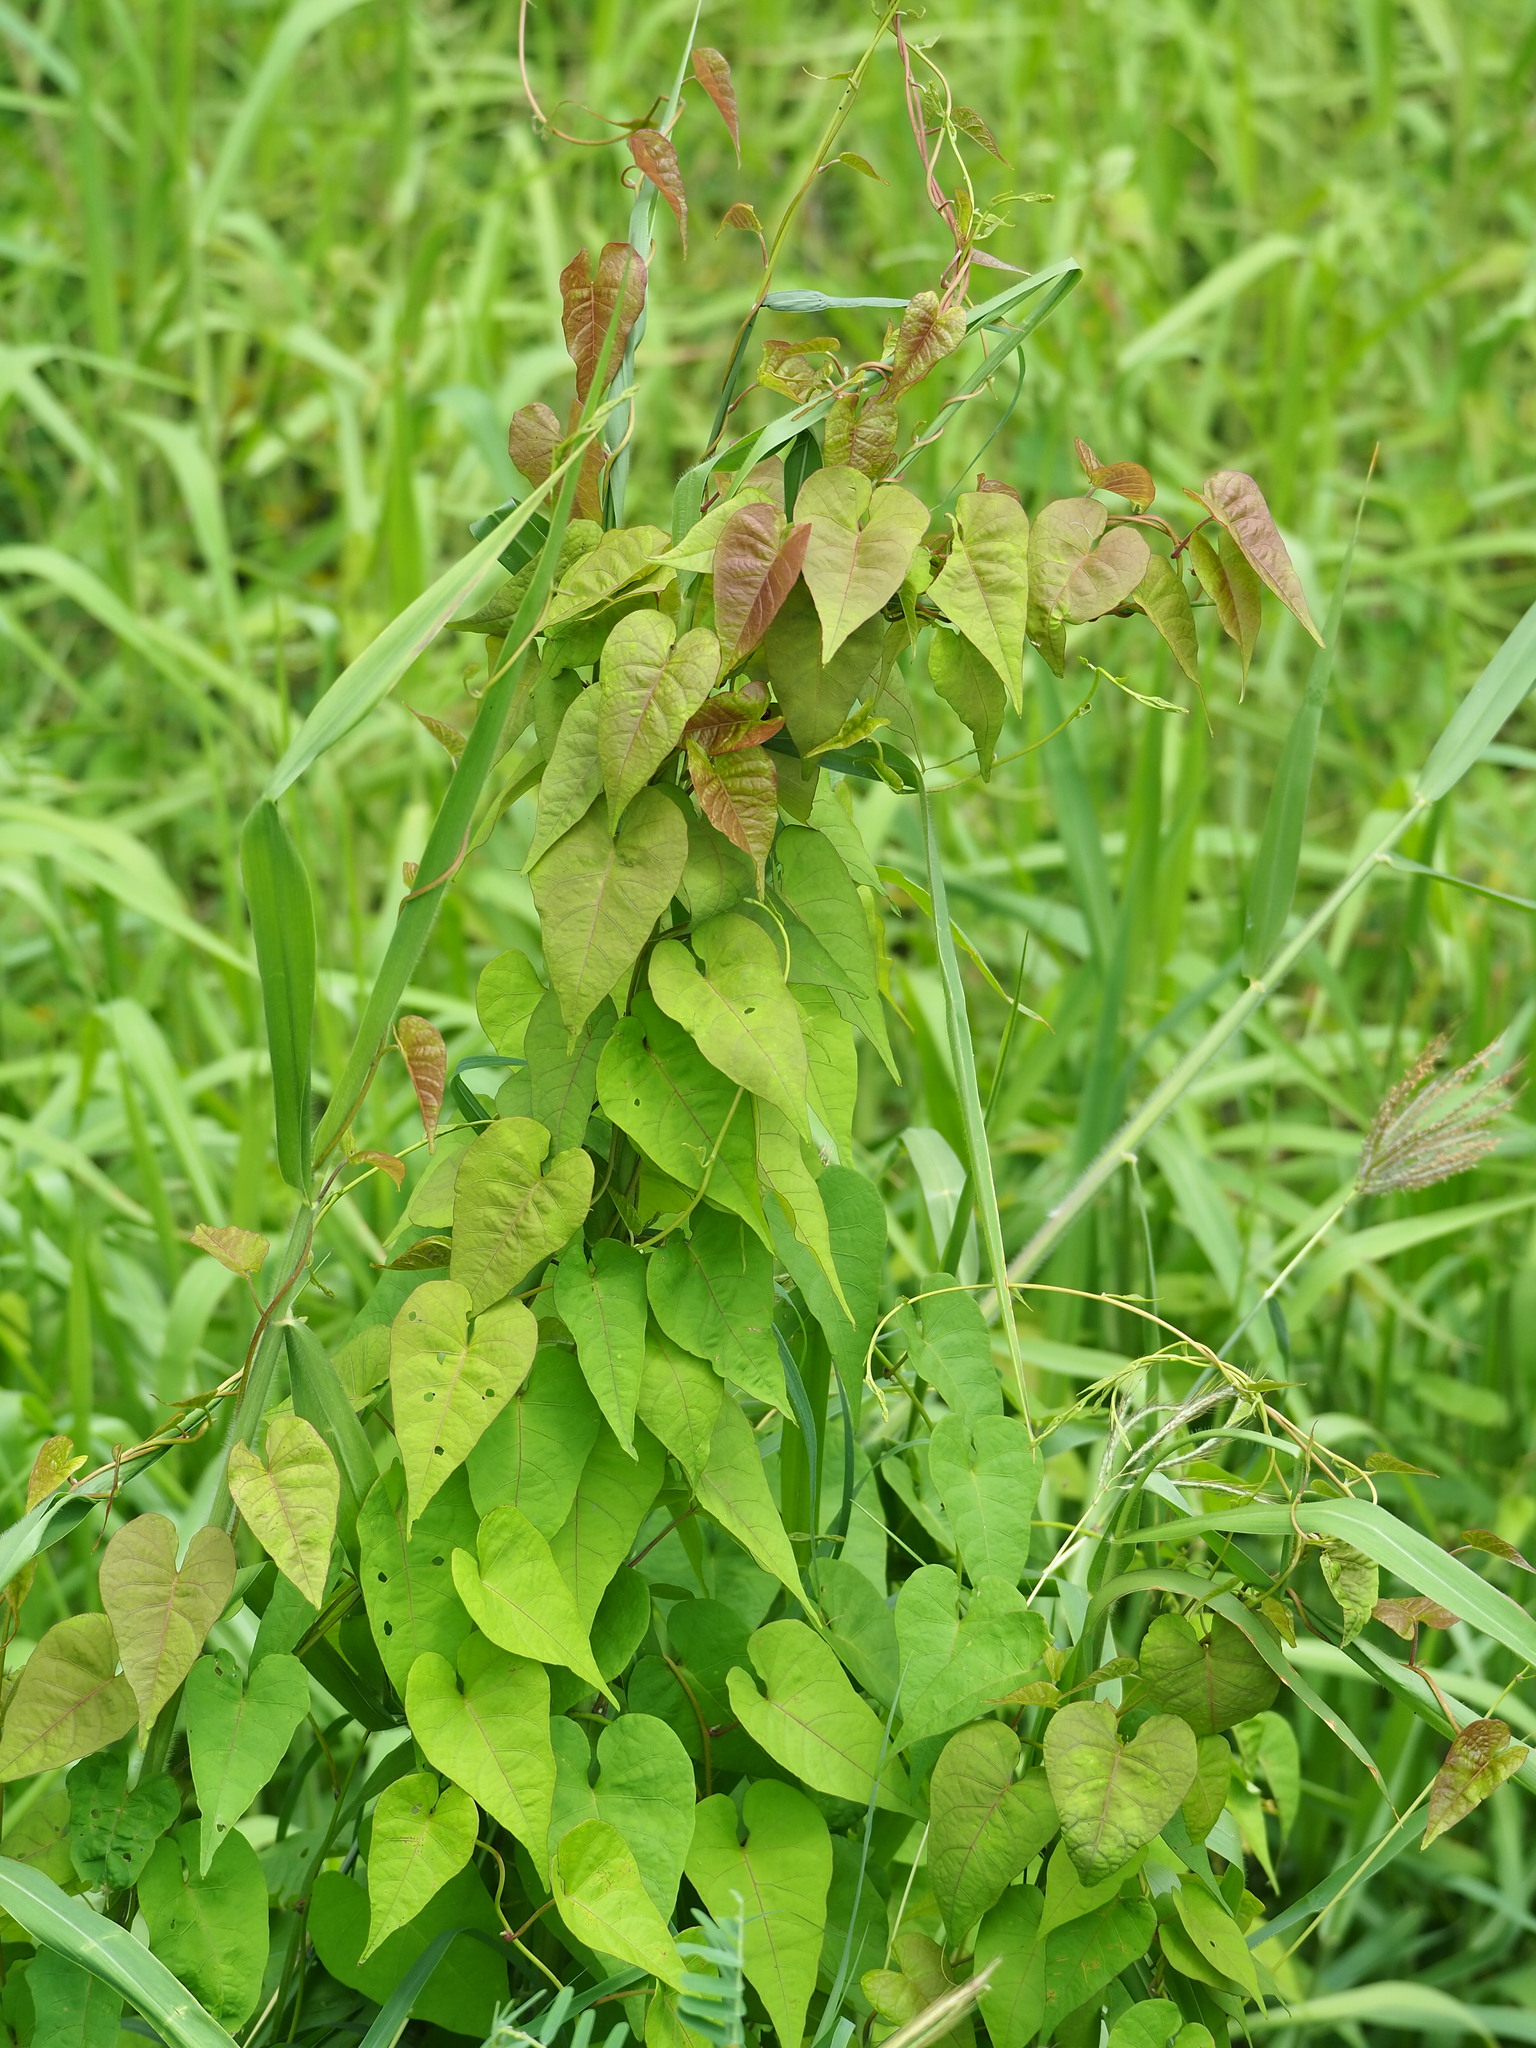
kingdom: Plantae
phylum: Tracheophyta
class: Magnoliopsida
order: Solanales
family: Convolvulaceae
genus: Merremia
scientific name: Merremia gemella
